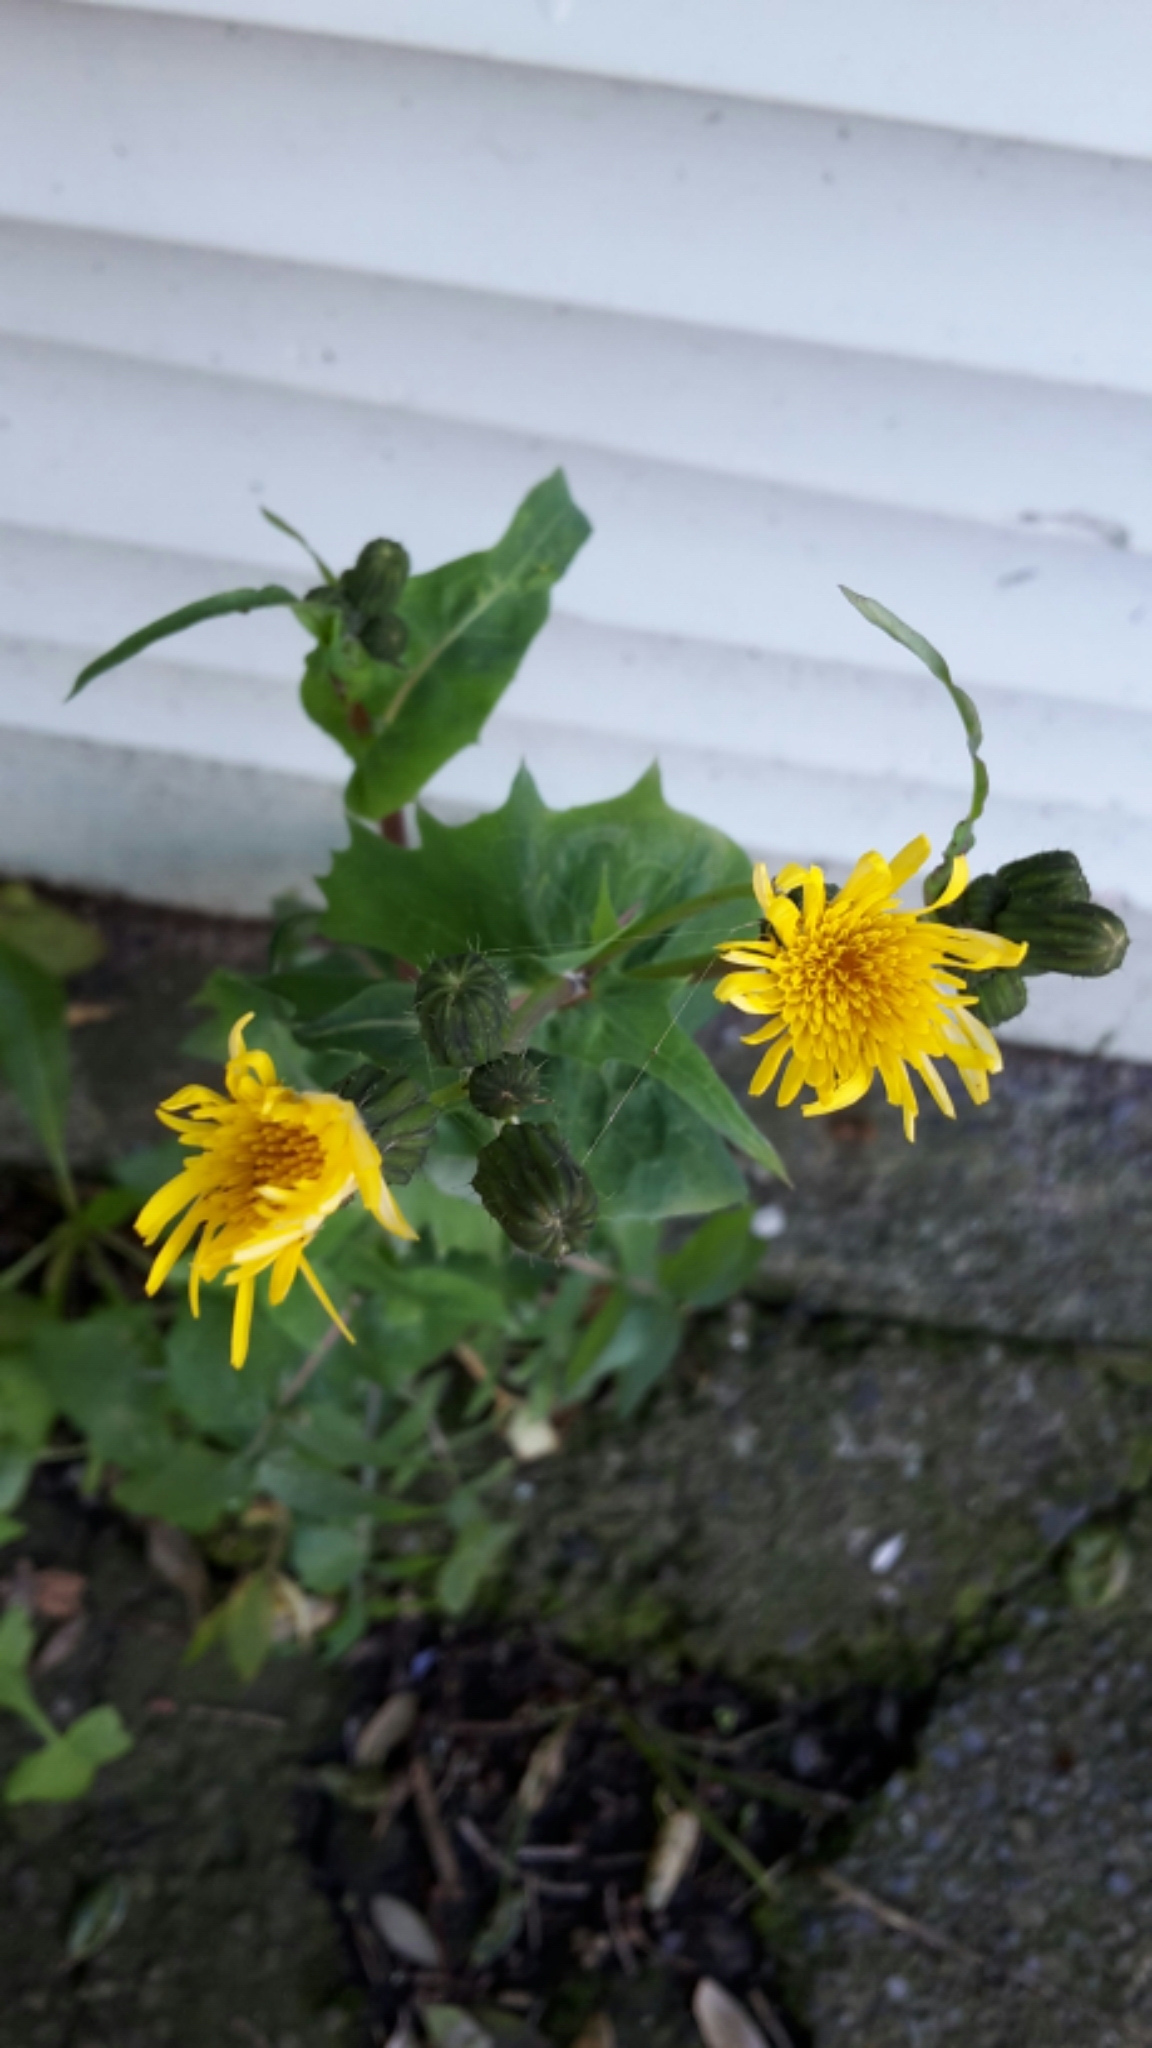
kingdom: Plantae
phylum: Tracheophyta
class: Magnoliopsida
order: Asterales
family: Asteraceae
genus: Sonchus
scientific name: Sonchus oleraceus
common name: Common sowthistle
